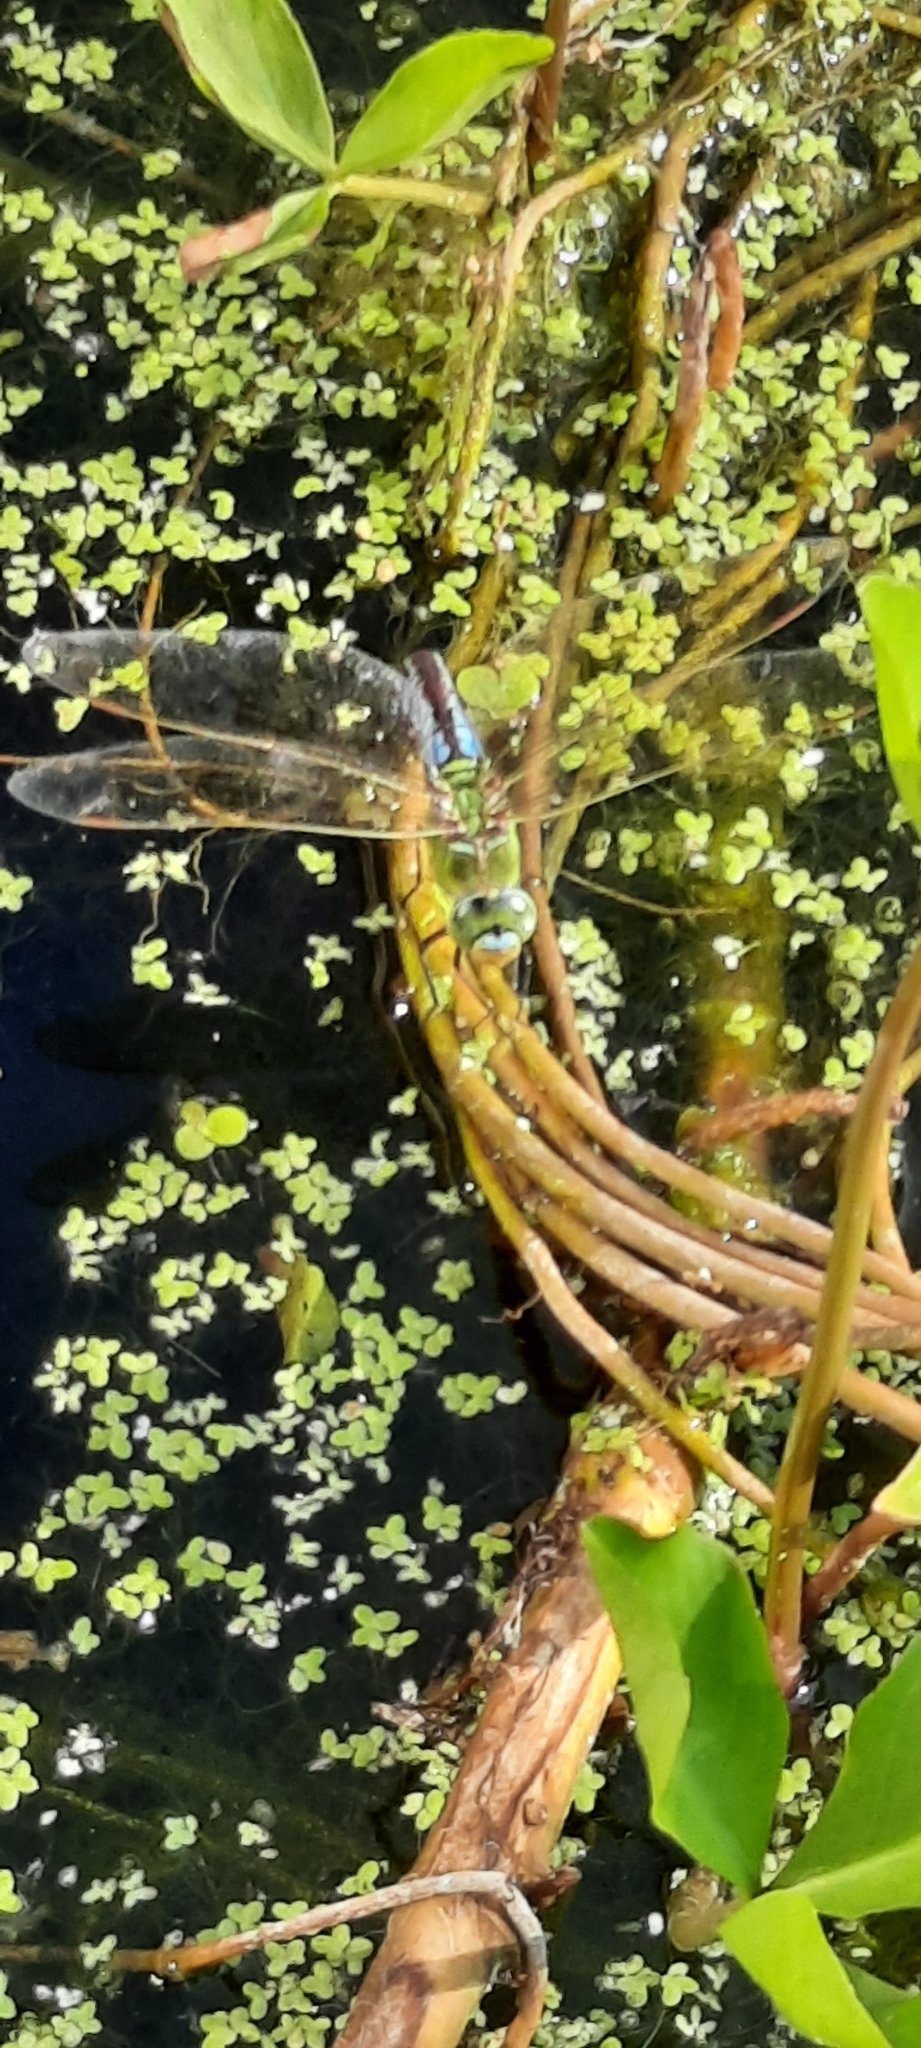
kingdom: Animalia
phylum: Arthropoda
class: Insecta
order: Odonata
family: Aeshnidae
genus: Anax
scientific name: Anax imperator
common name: Emperor dragonfly
